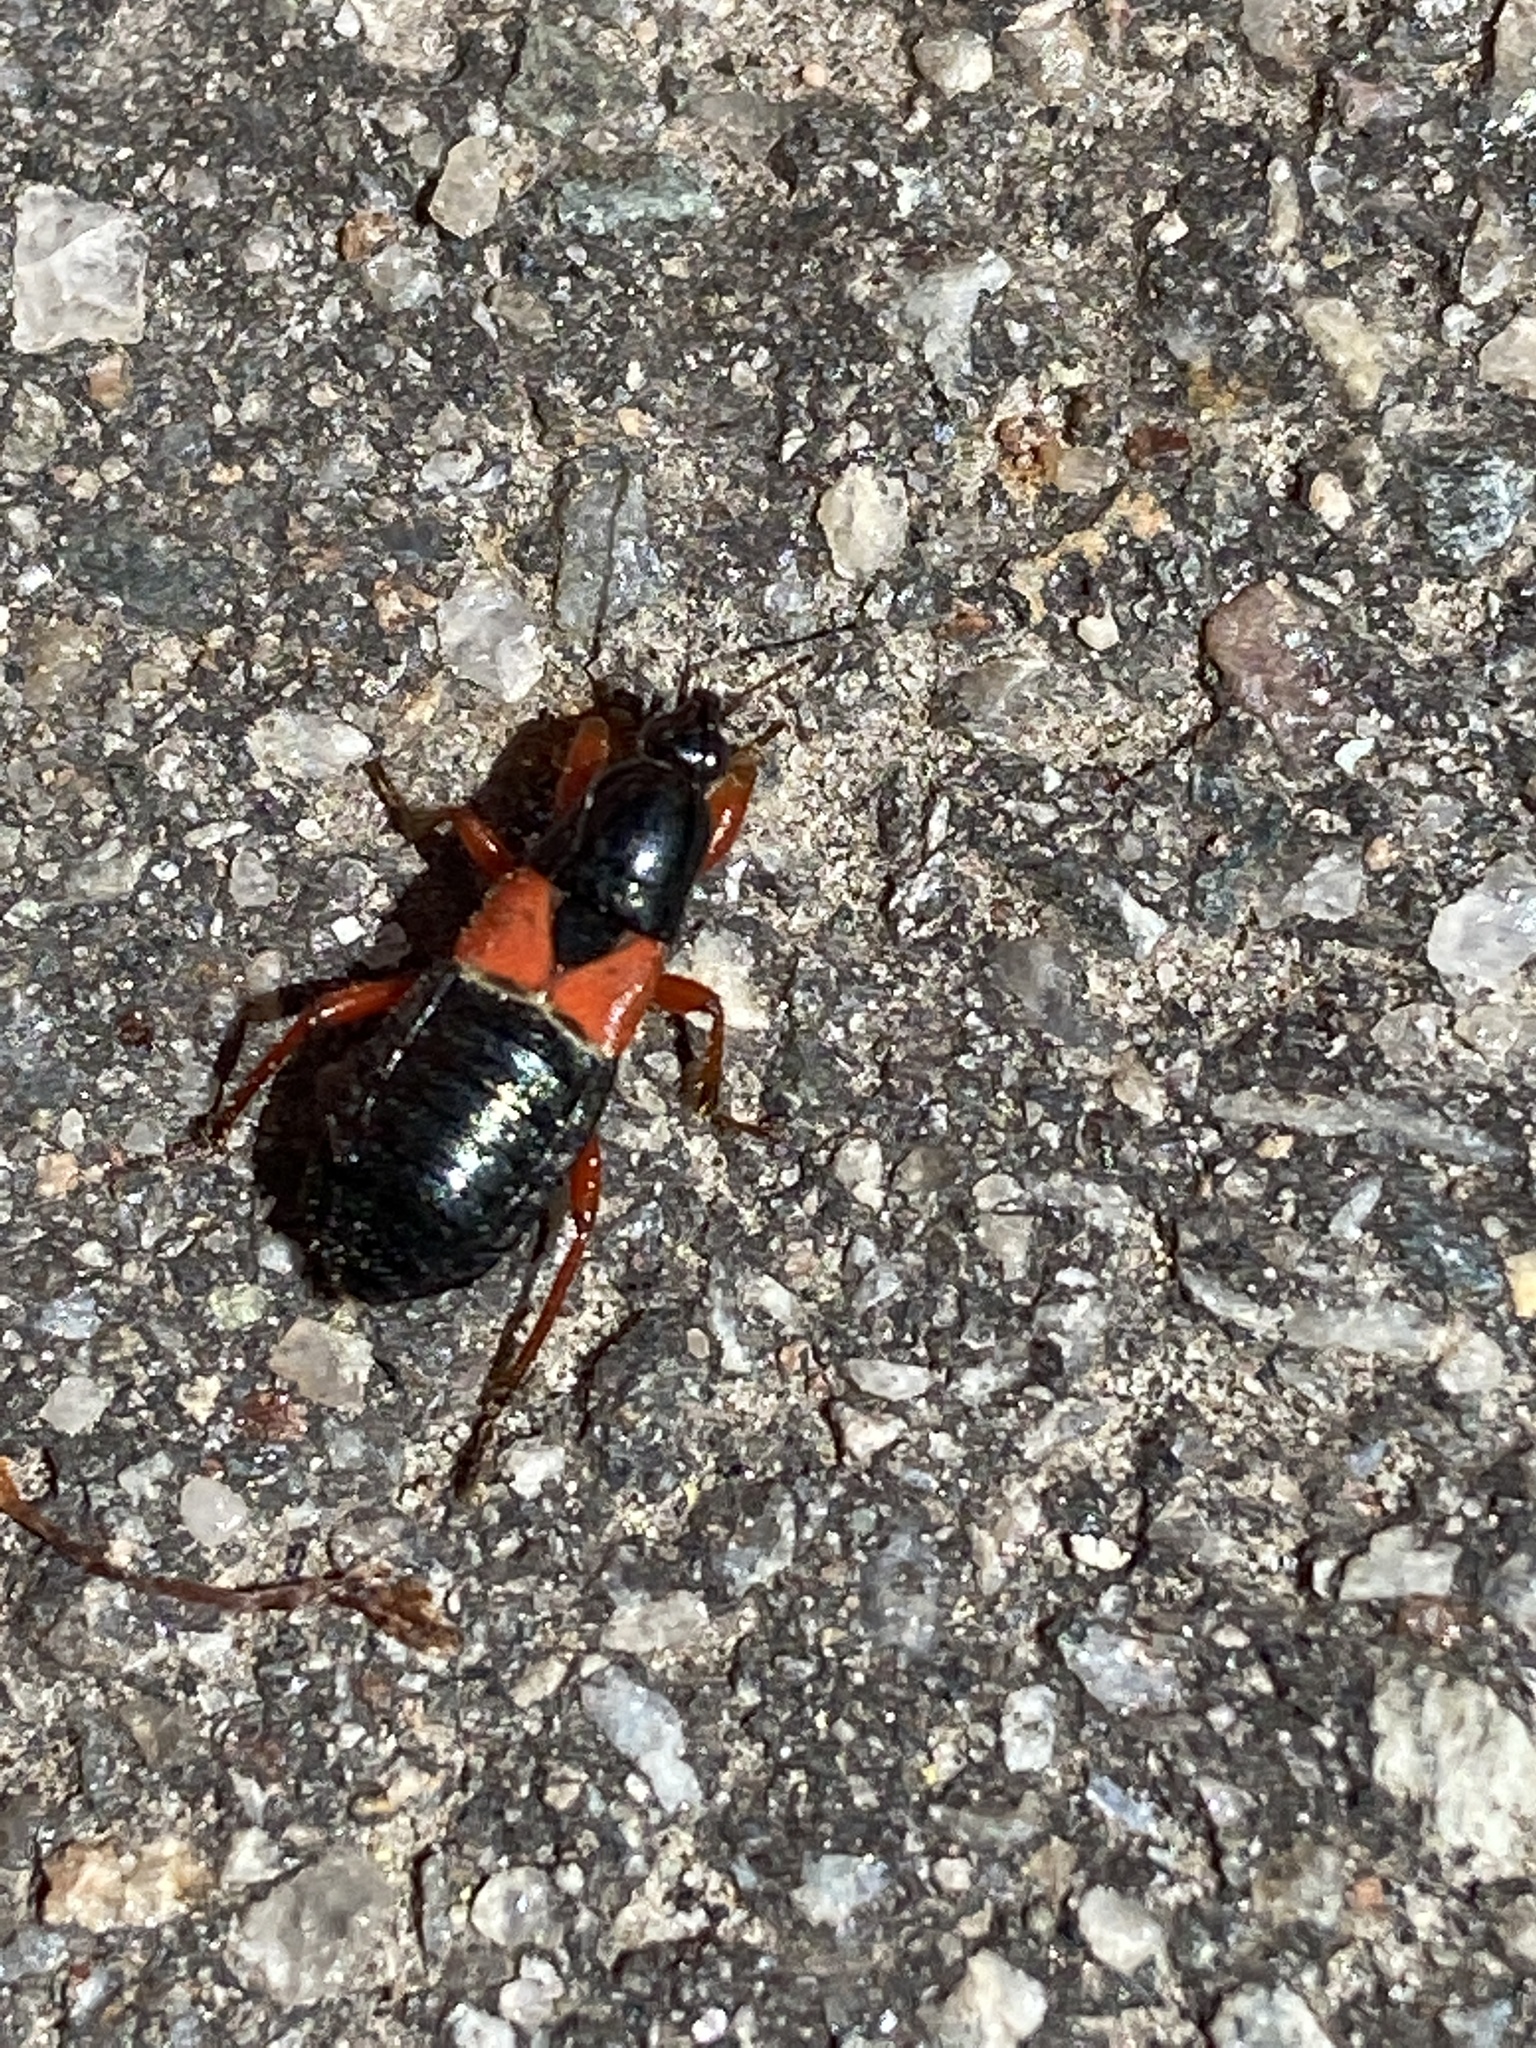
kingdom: Animalia
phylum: Arthropoda
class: Insecta
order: Hemiptera
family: Nabidae
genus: Prostemma
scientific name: Prostemma guttula
